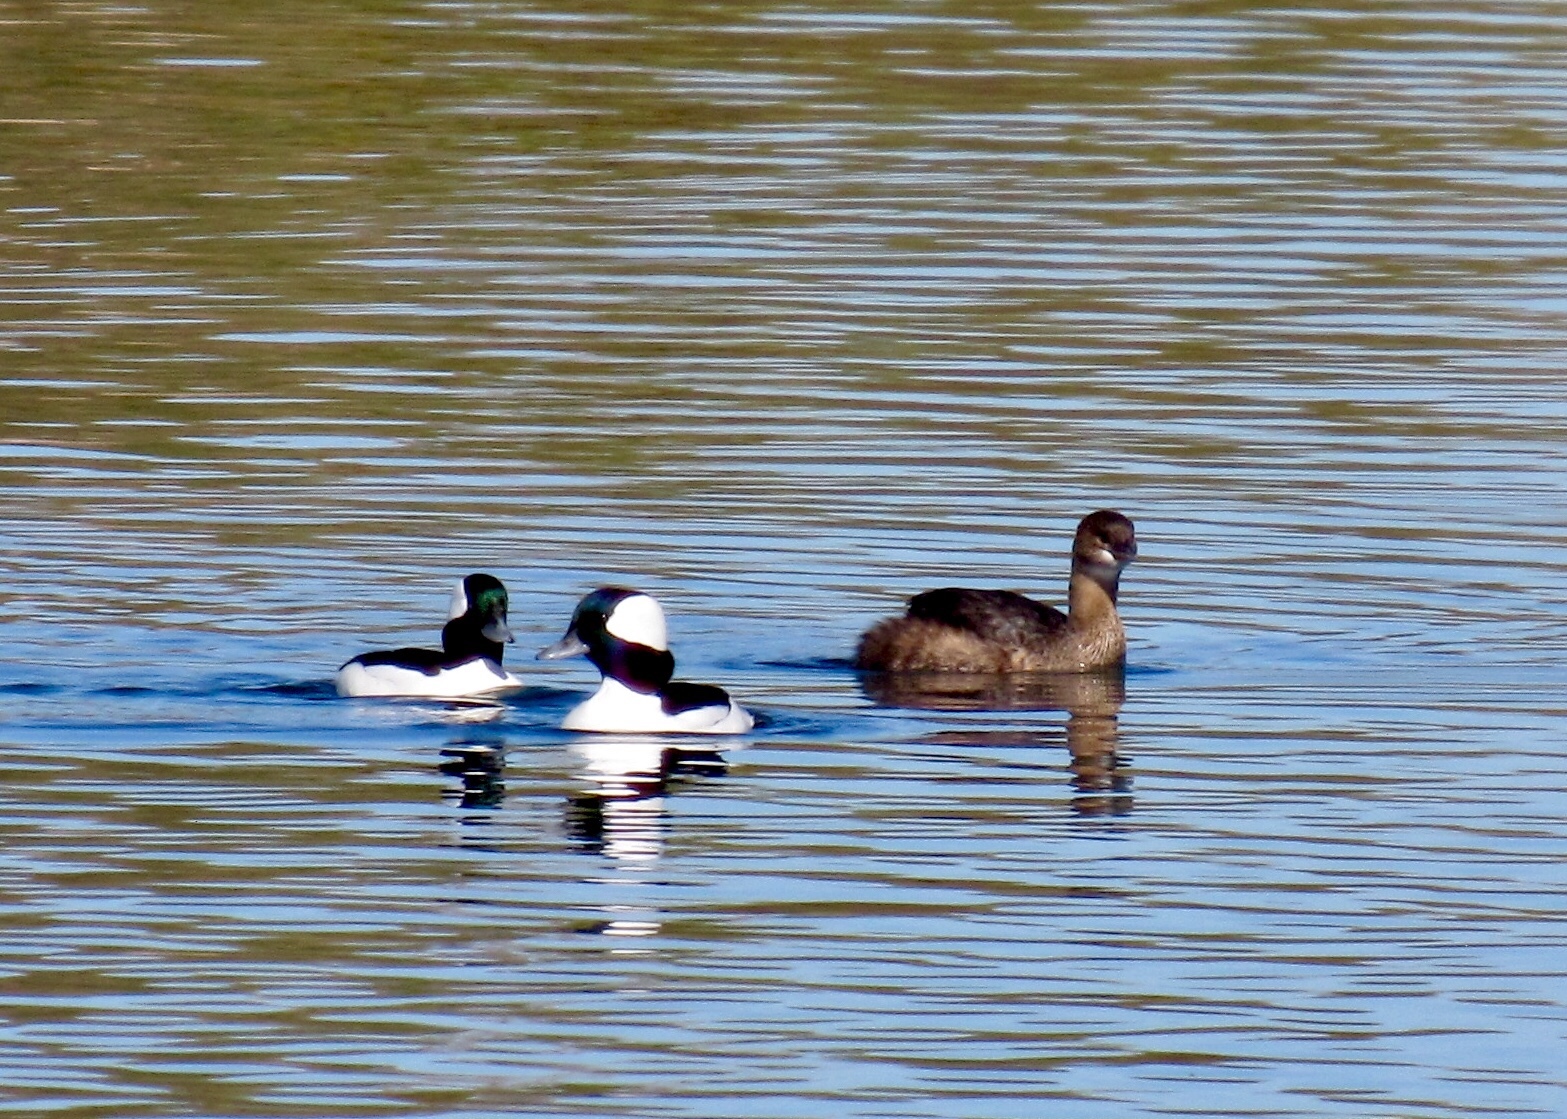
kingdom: Animalia
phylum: Chordata
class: Aves
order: Podicipediformes
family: Podicipedidae
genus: Podilymbus
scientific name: Podilymbus podiceps
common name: Pied-billed grebe
